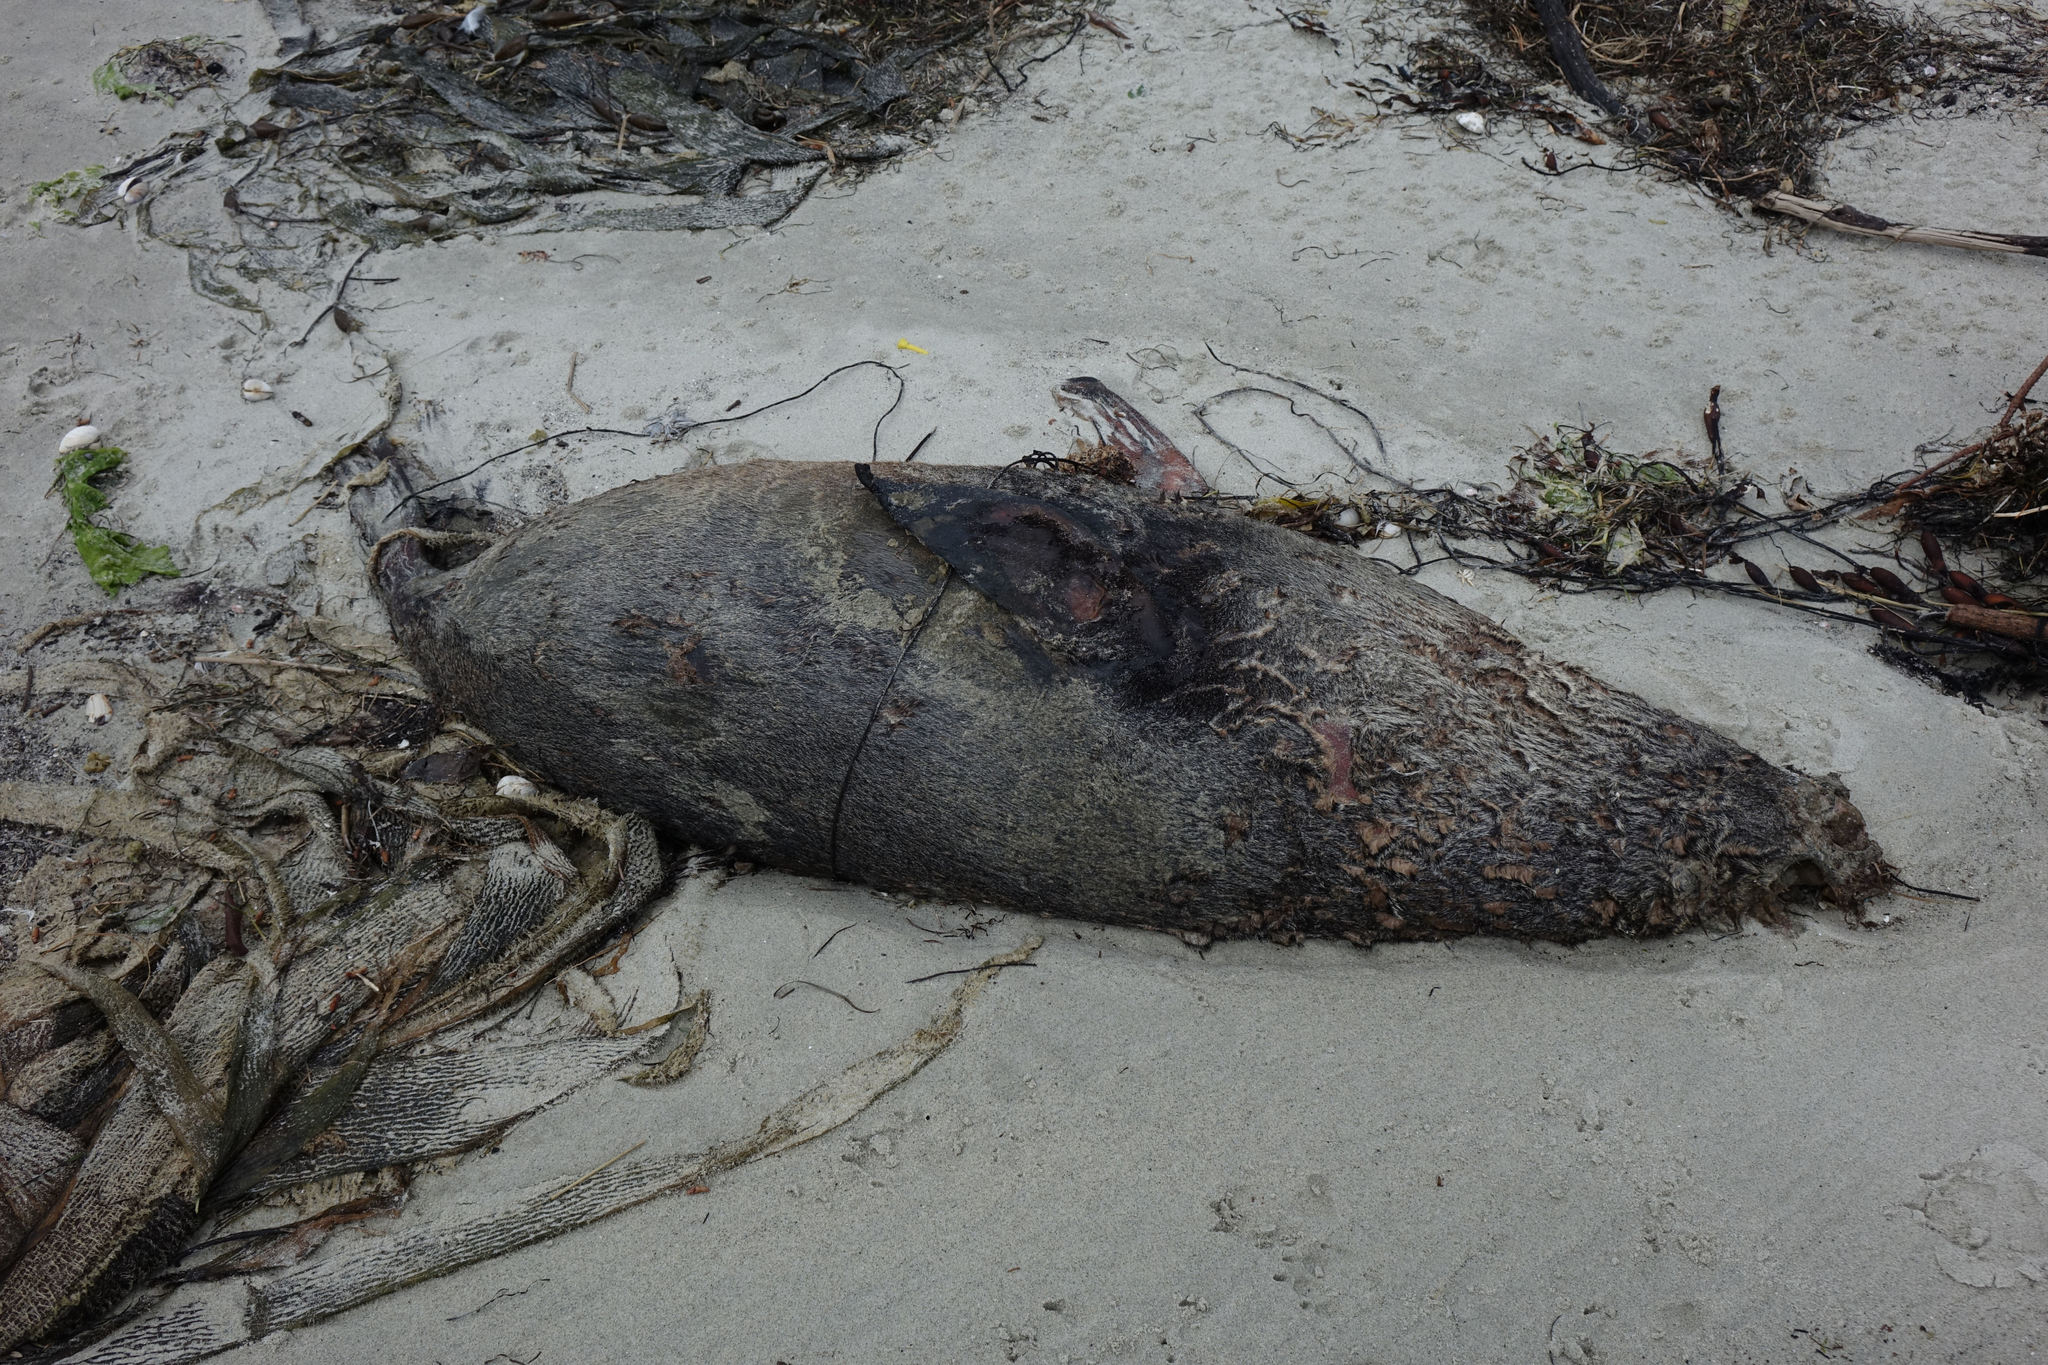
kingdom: Animalia
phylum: Chordata
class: Mammalia
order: Carnivora
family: Otariidae
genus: Arctocephalus
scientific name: Arctocephalus forsteri
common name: New zealand fur seal
